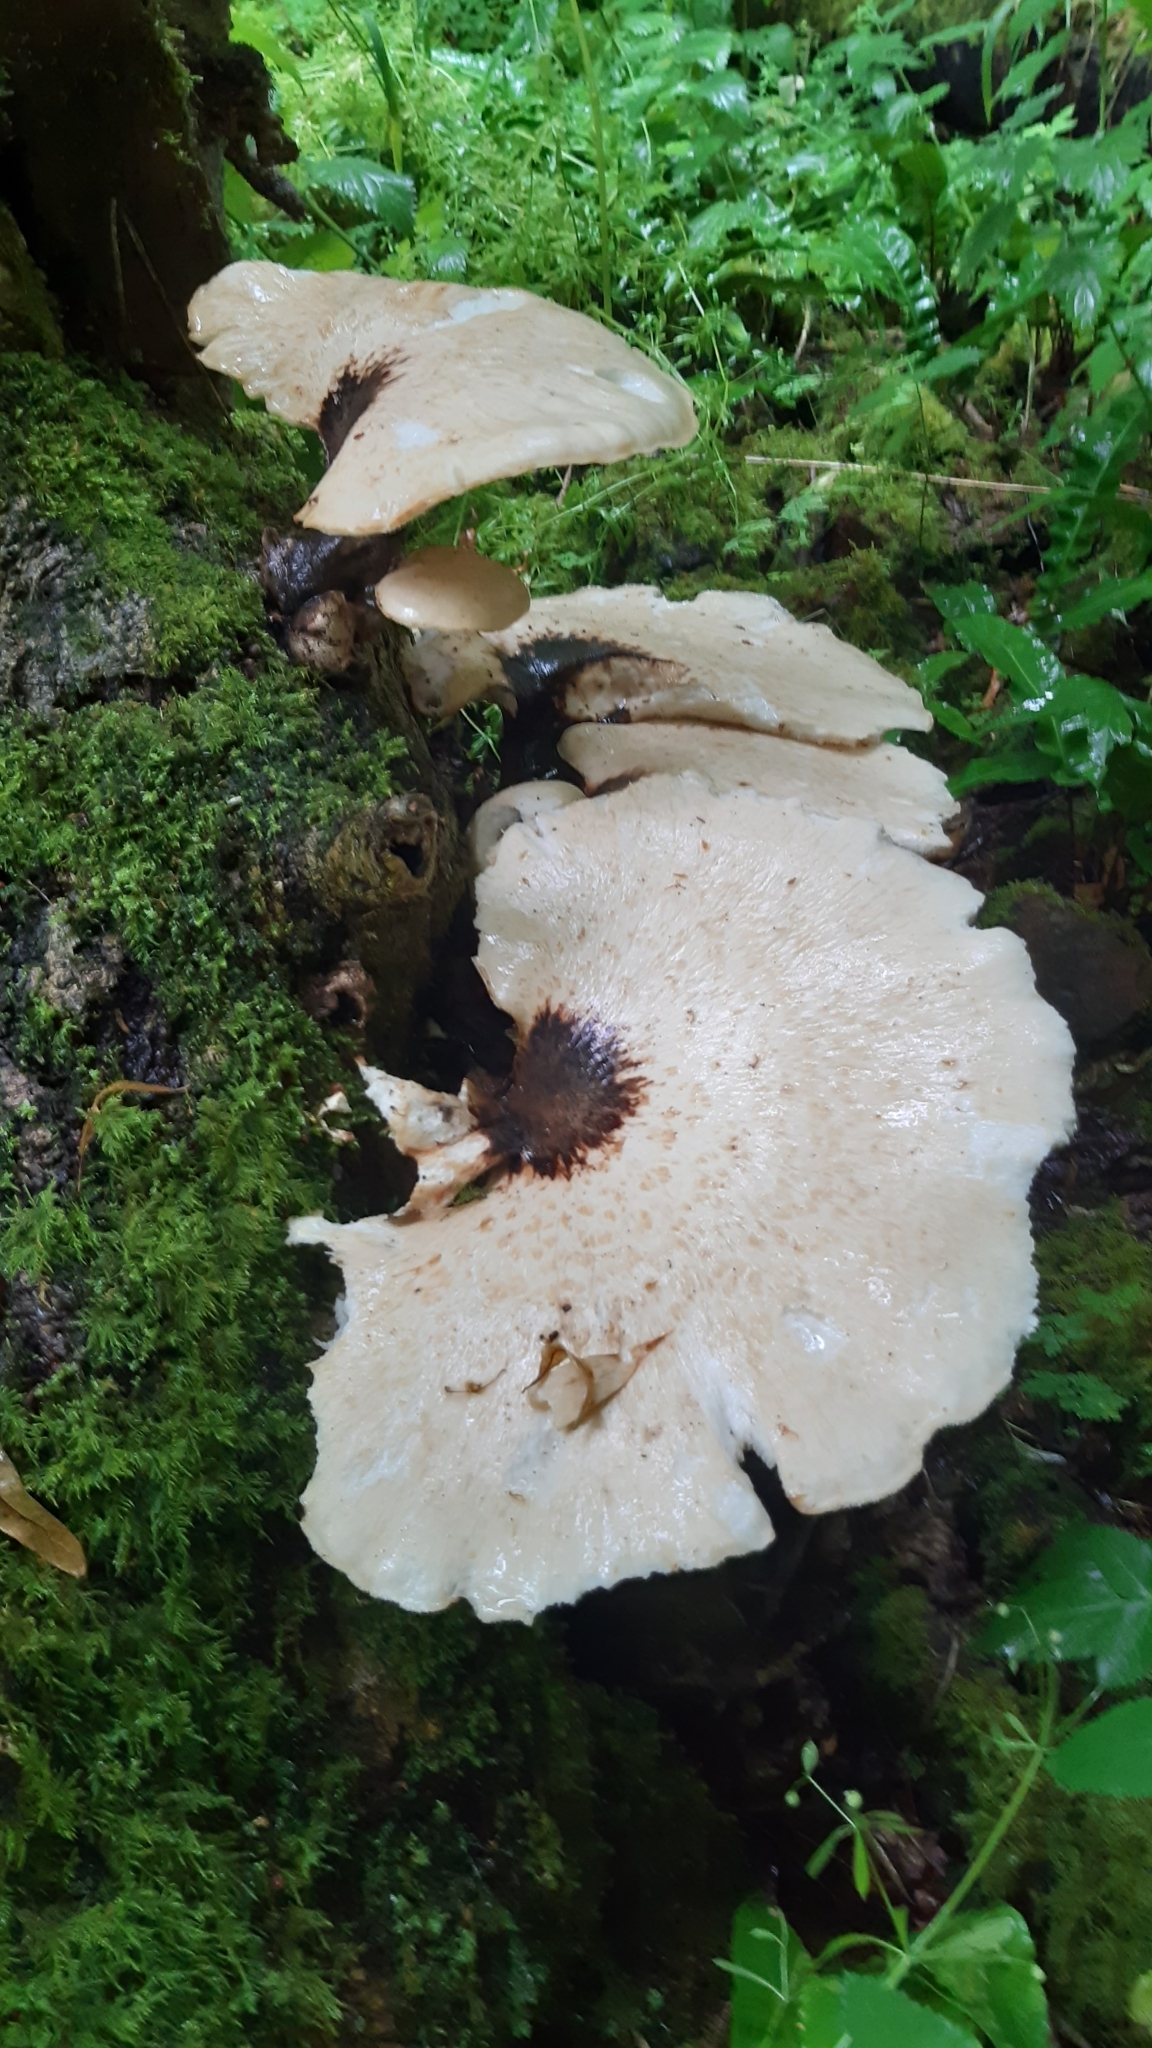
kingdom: Fungi
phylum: Basidiomycota
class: Agaricomycetes
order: Polyporales
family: Polyporaceae
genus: Cerioporus
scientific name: Cerioporus squamosus
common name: Dryad's saddle
